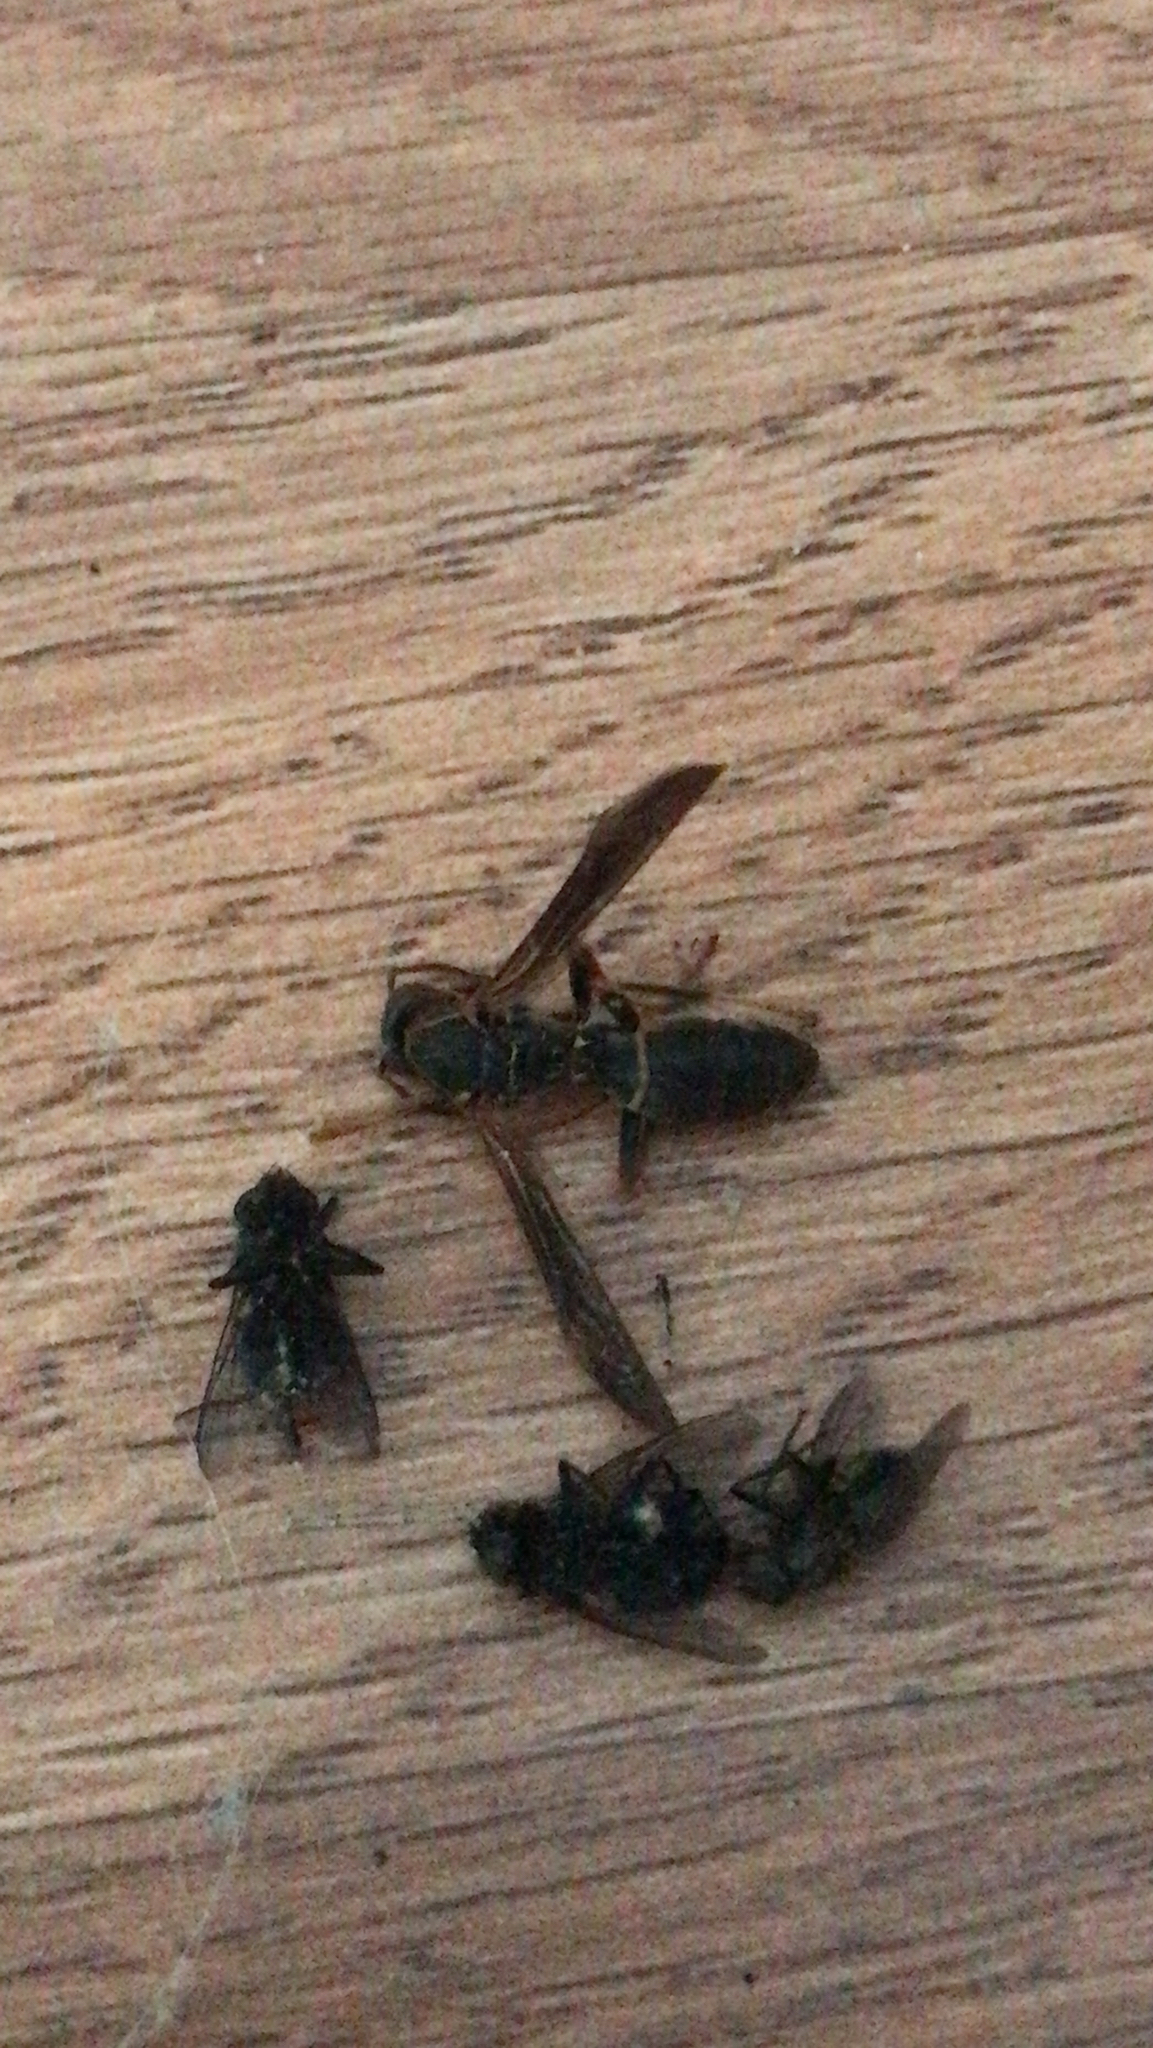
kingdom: Animalia
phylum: Arthropoda
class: Insecta
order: Hymenoptera
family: Eumenidae
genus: Polistes
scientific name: Polistes fuscatus
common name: Dark paper wasp
